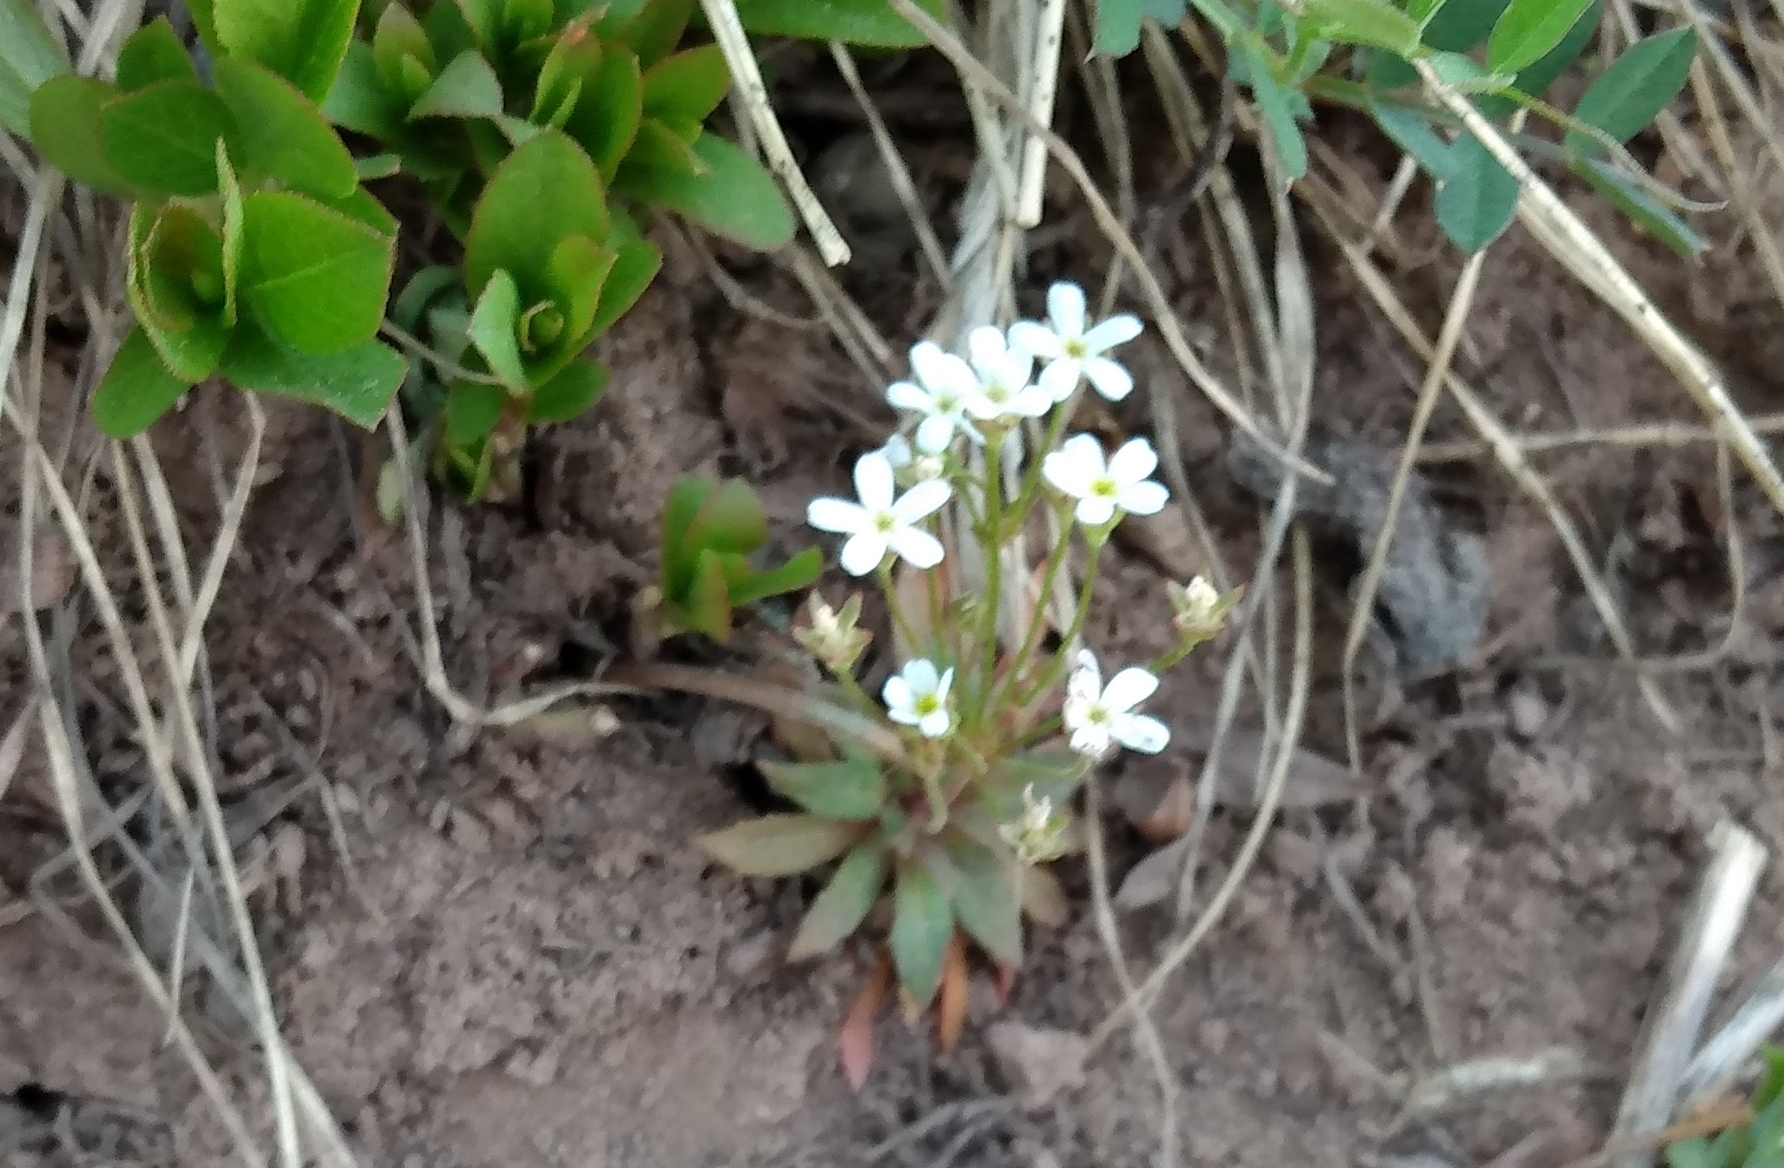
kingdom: Plantae
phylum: Tracheophyta
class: Magnoliopsida
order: Ericales
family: Primulaceae
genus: Androsace
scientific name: Androsace septentrionalis
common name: Hairy northern fairy-candelabra
